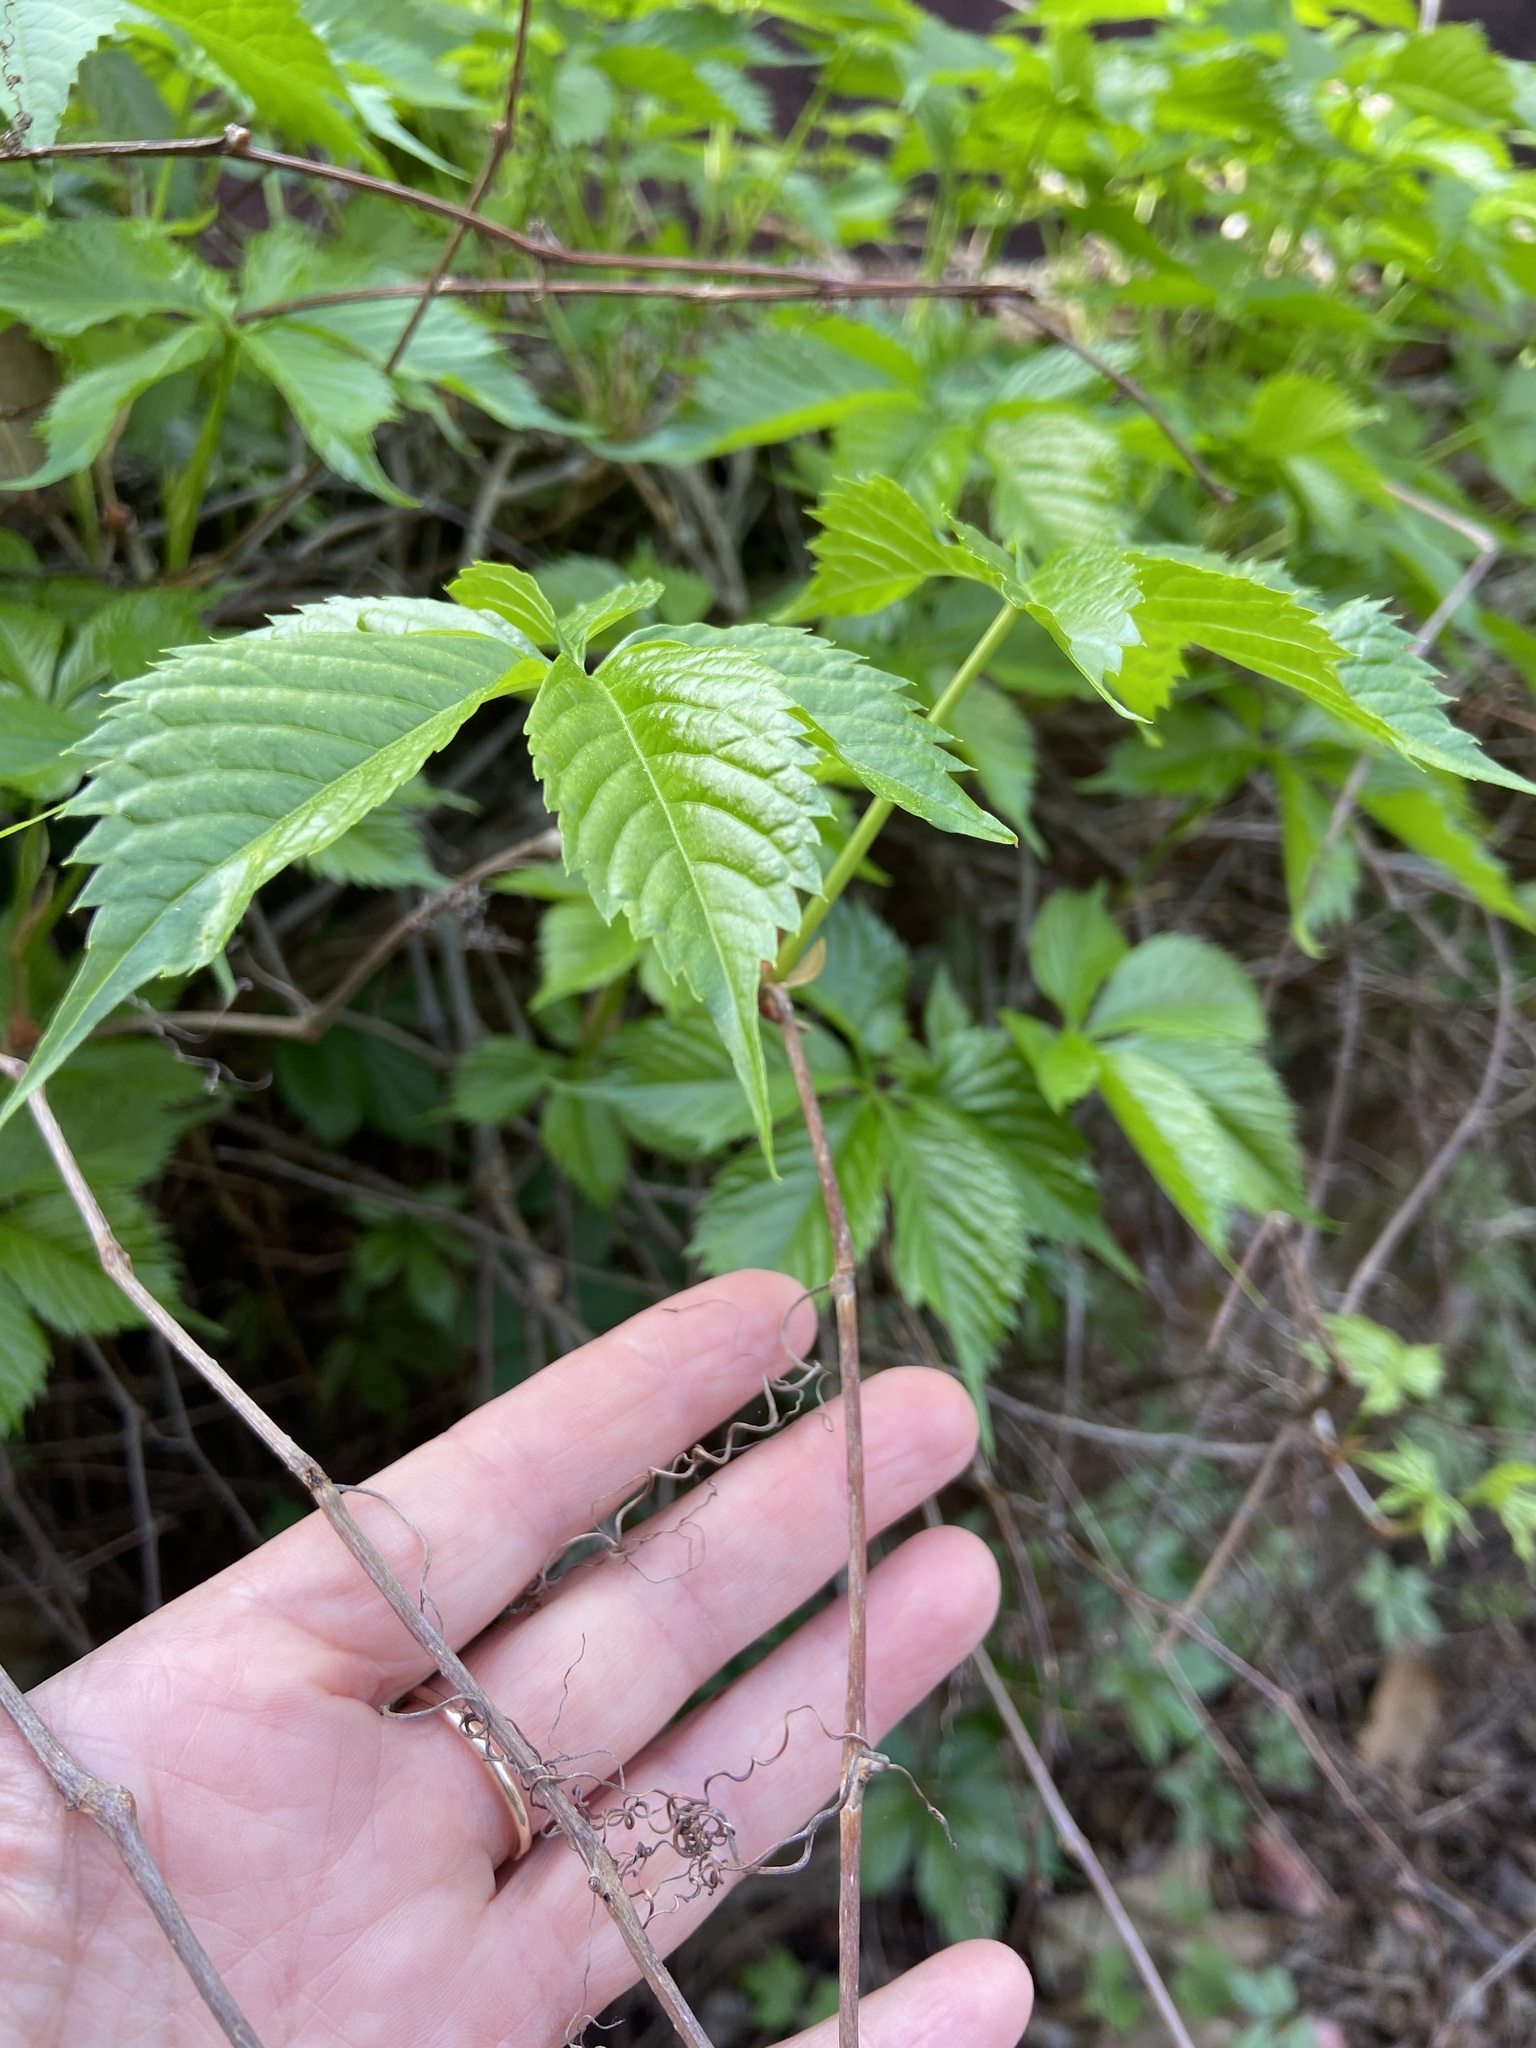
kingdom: Plantae
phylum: Tracheophyta
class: Magnoliopsida
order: Vitales
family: Vitaceae
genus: Parthenocissus
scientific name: Parthenocissus quinquefolia
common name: Virginia-creeper
